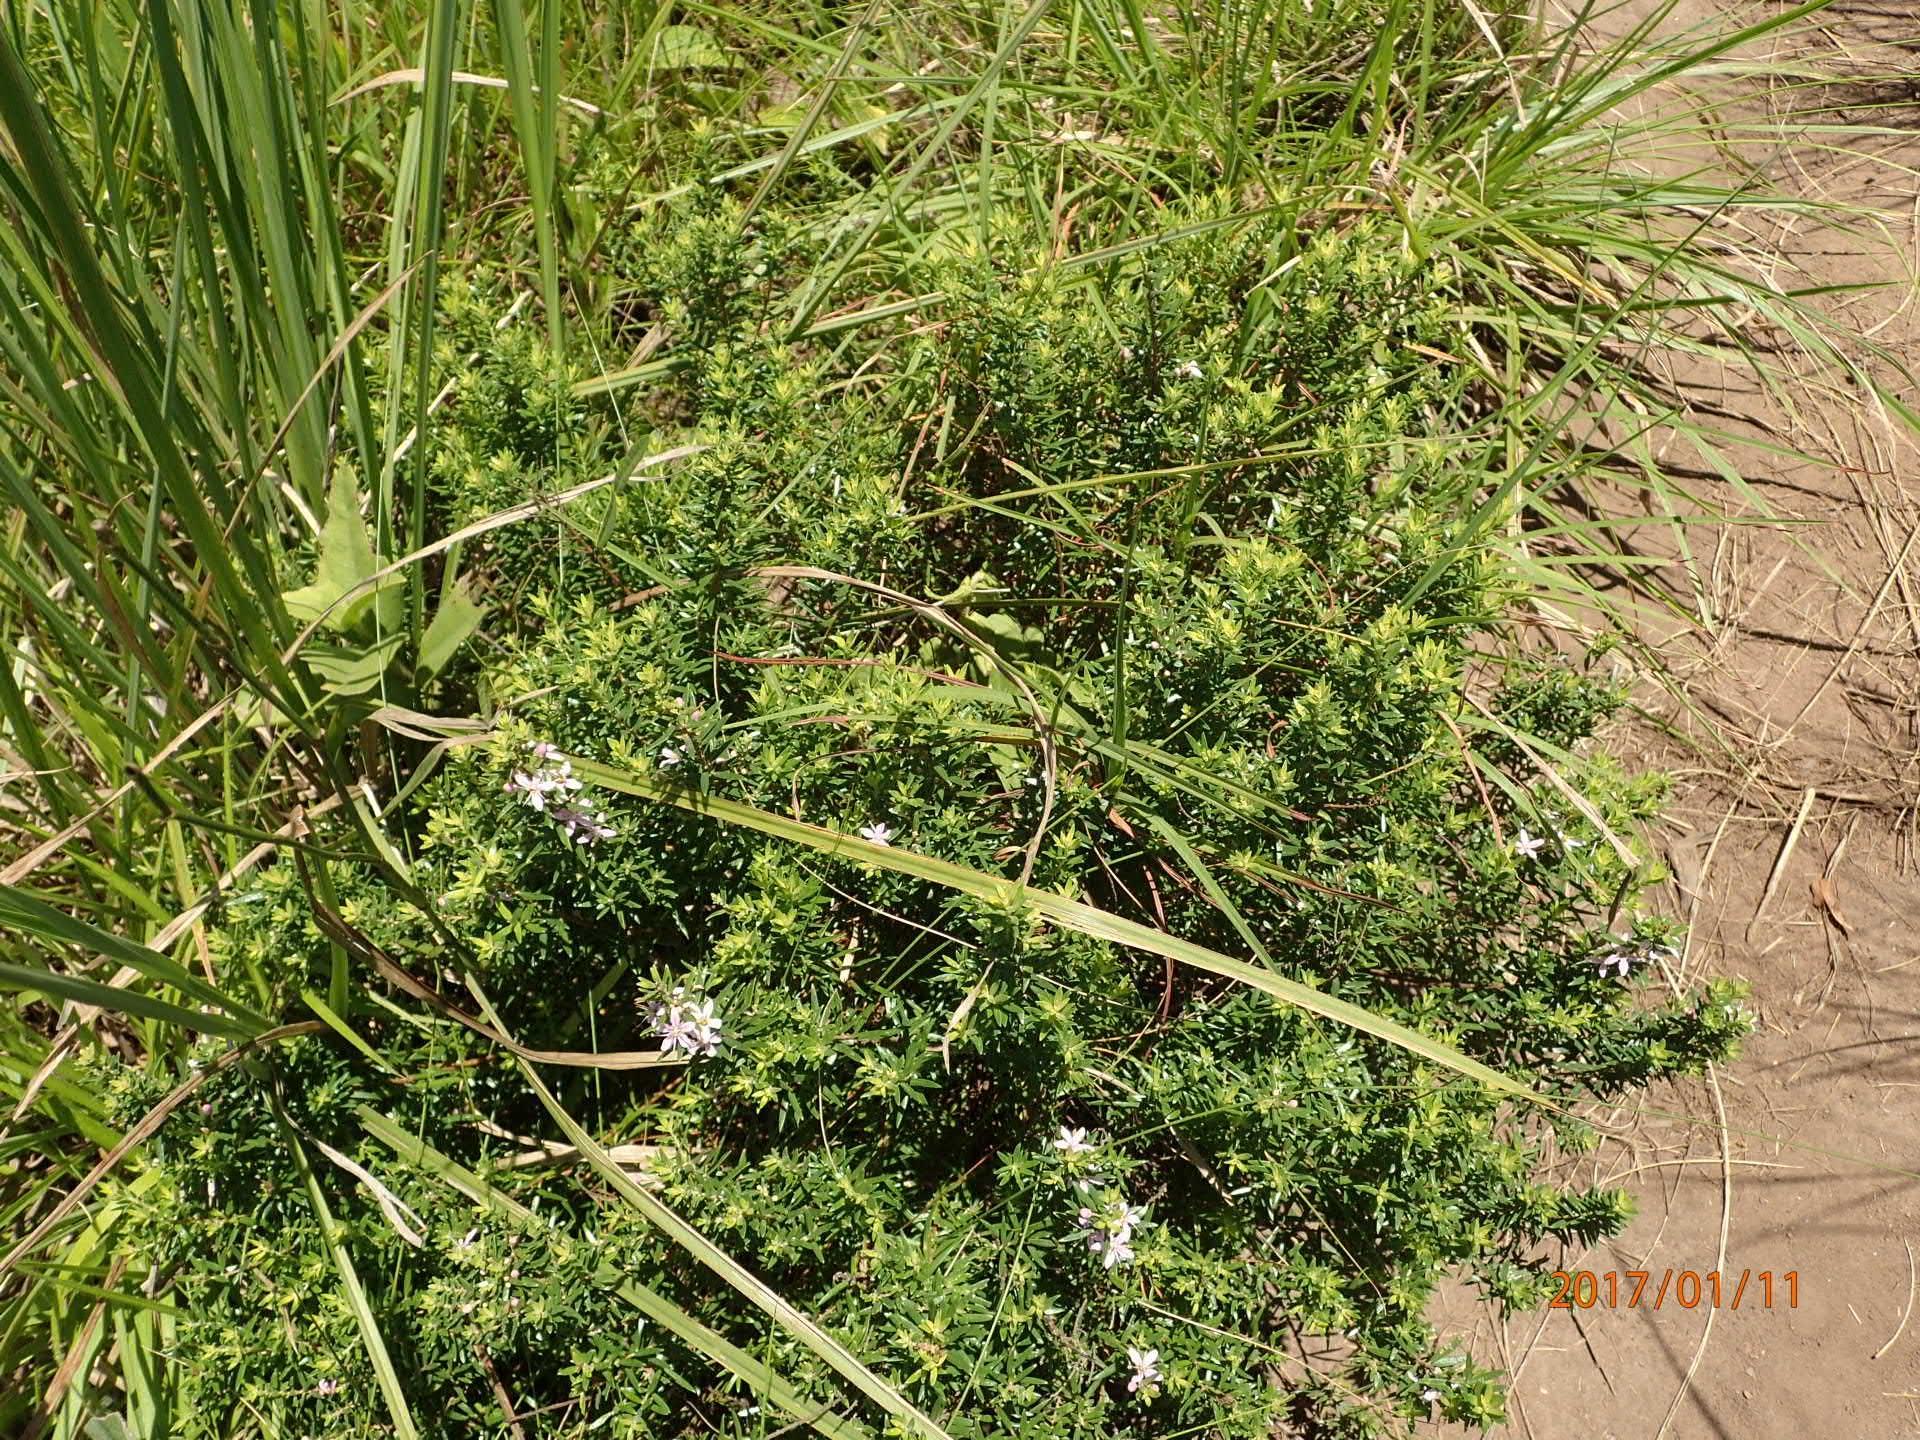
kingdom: Plantae
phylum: Tracheophyta
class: Magnoliopsida
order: Sapindales
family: Rutaceae
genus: Agathosma
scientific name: Agathosma ovata
